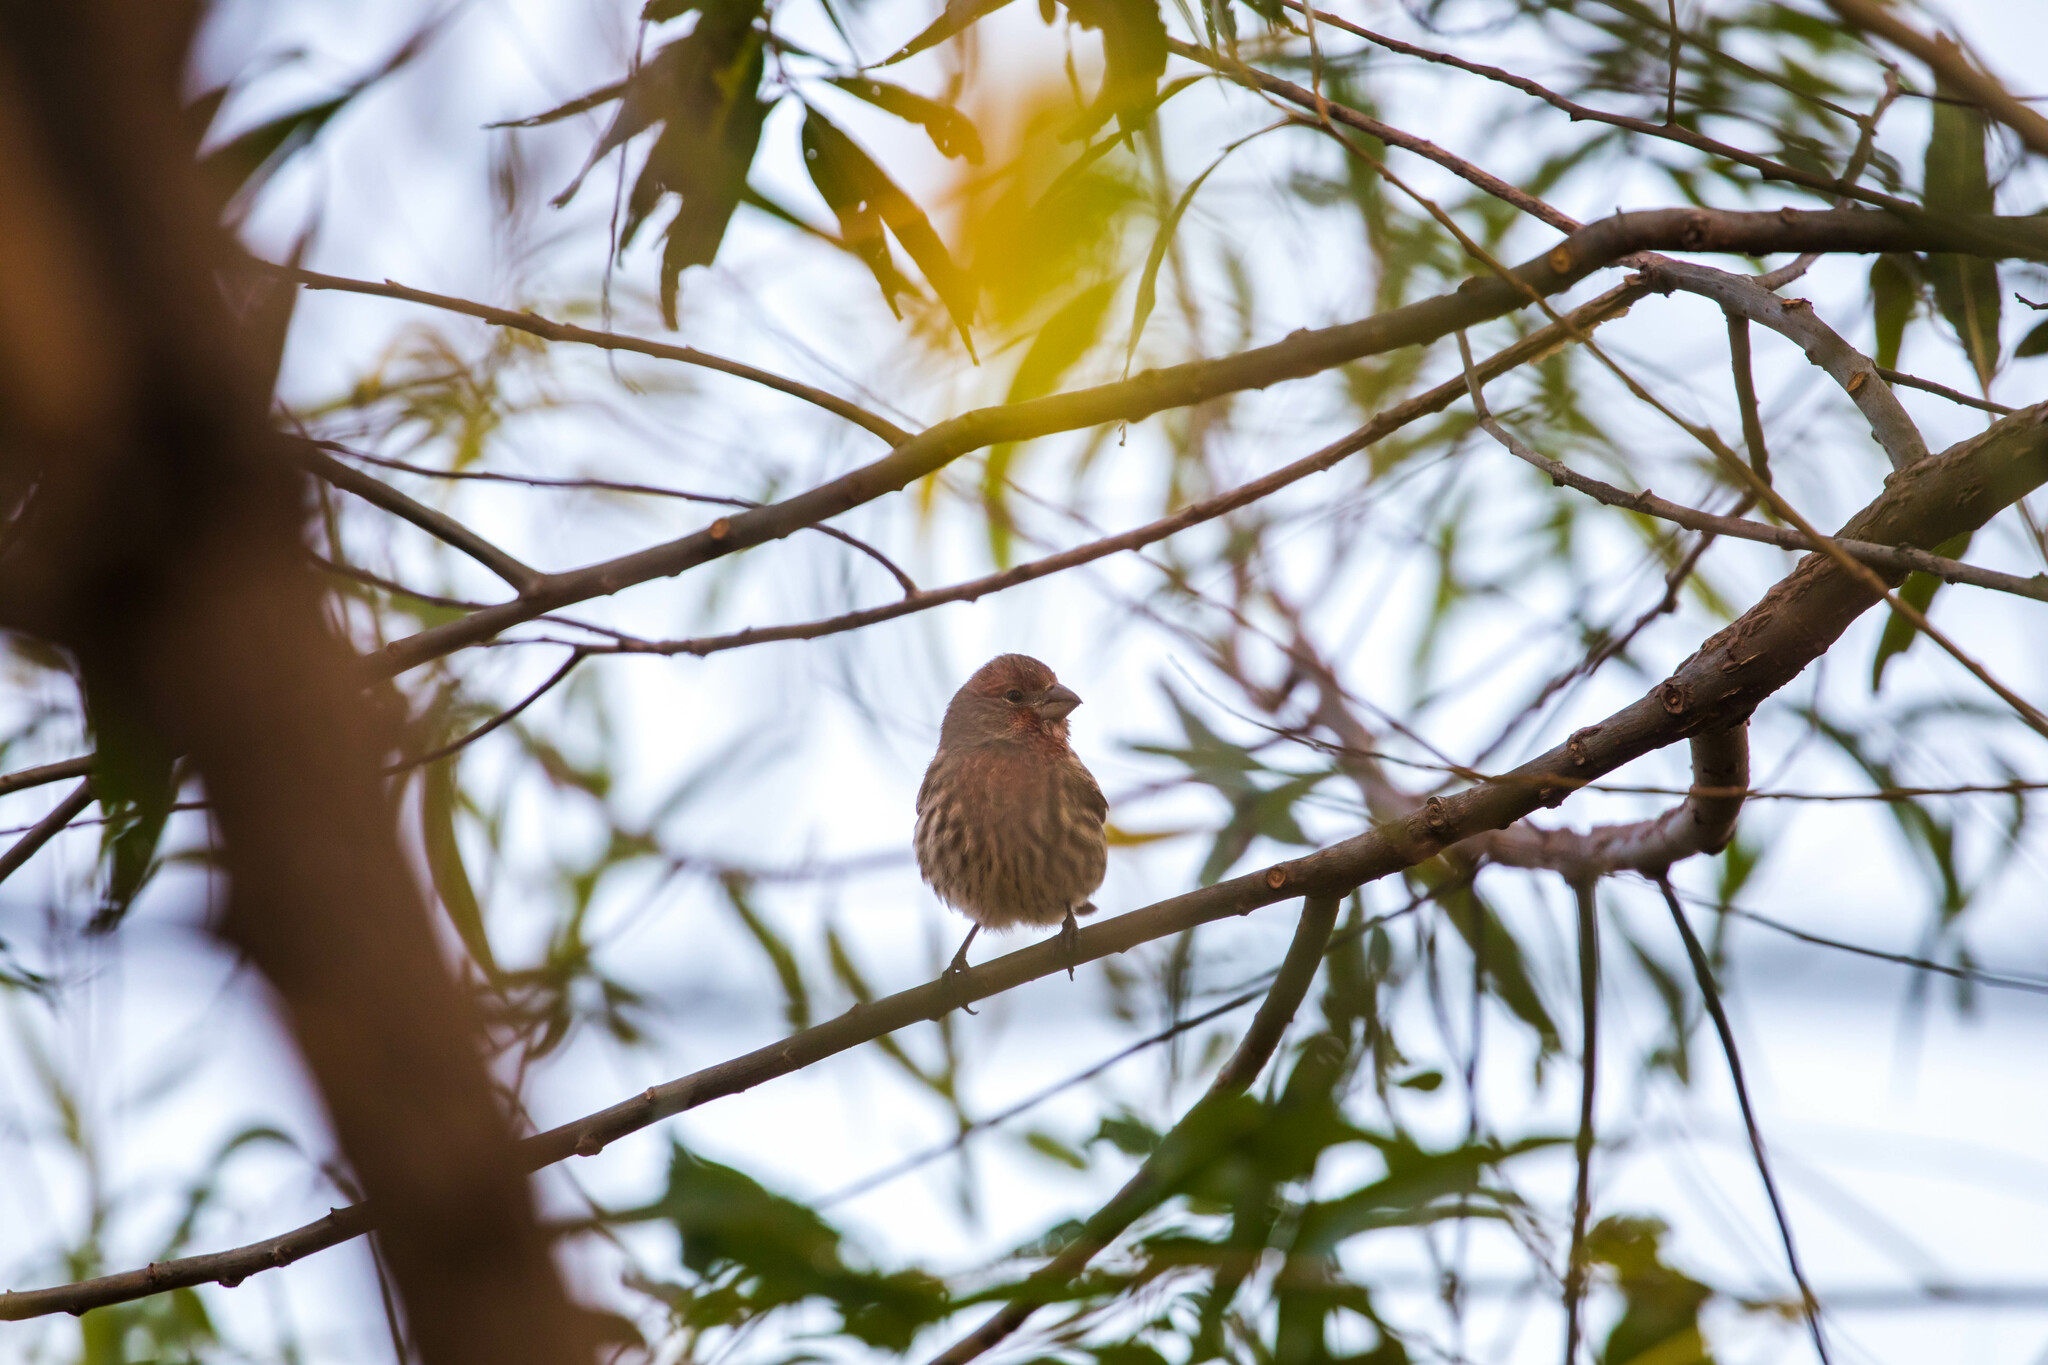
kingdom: Animalia
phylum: Chordata
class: Aves
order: Passeriformes
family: Fringillidae
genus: Haemorhous
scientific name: Haemorhous mexicanus
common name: House finch
